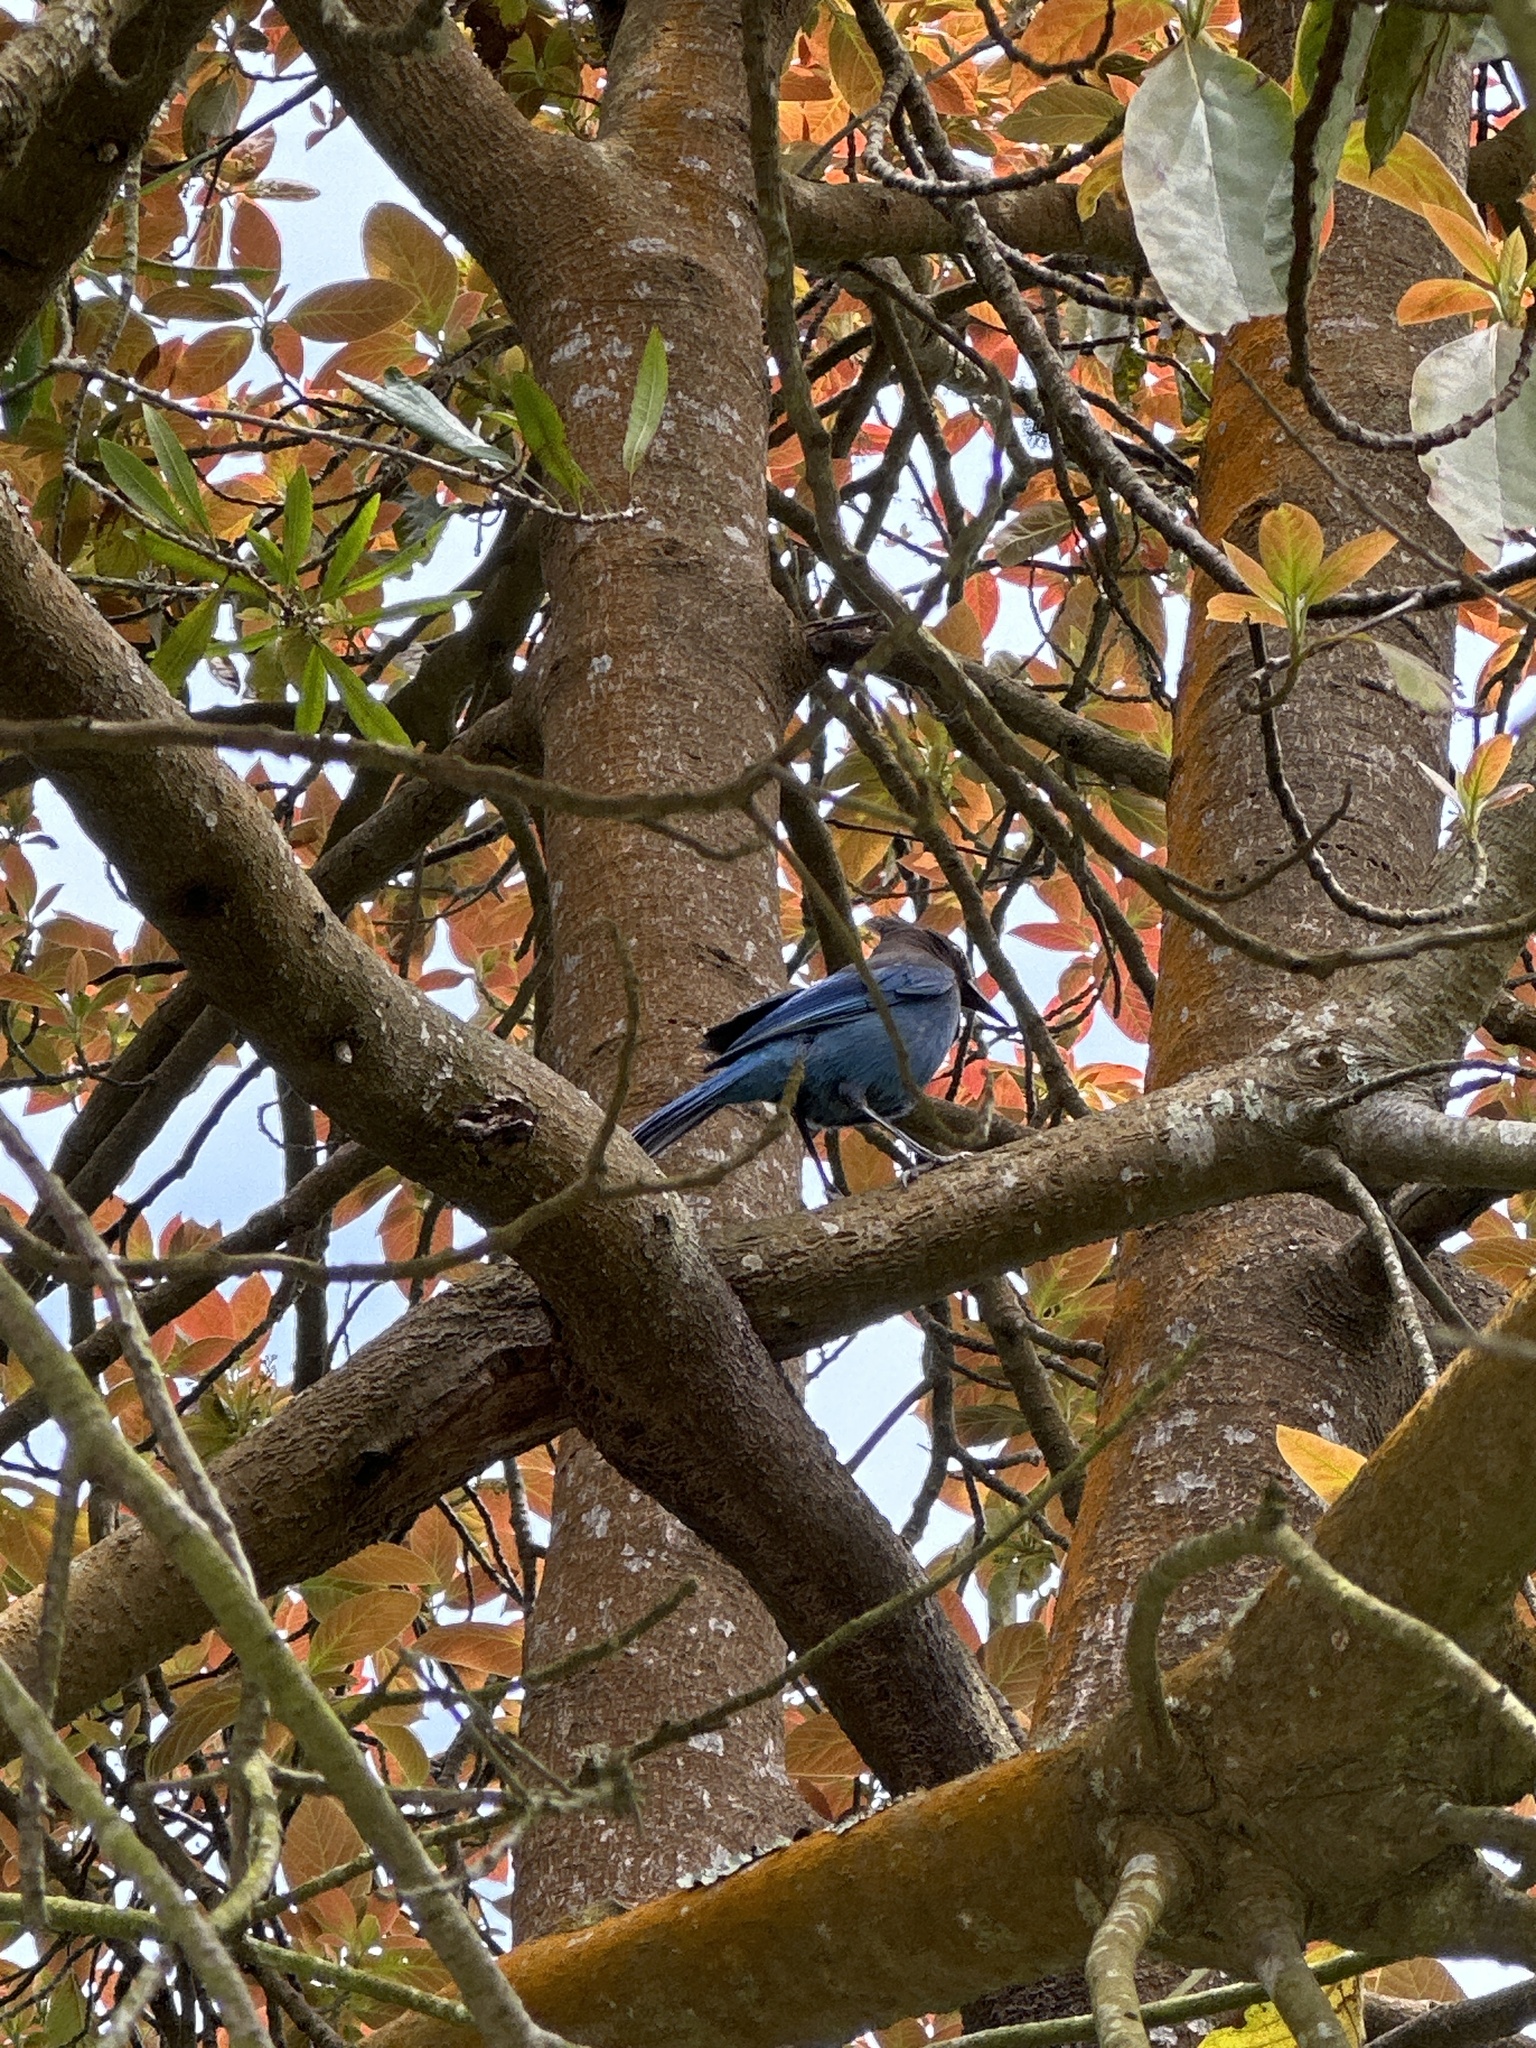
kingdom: Animalia
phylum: Chordata
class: Aves
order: Passeriformes
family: Corvidae
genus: Cyanocitta
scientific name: Cyanocitta stelleri
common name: Steller's jay
